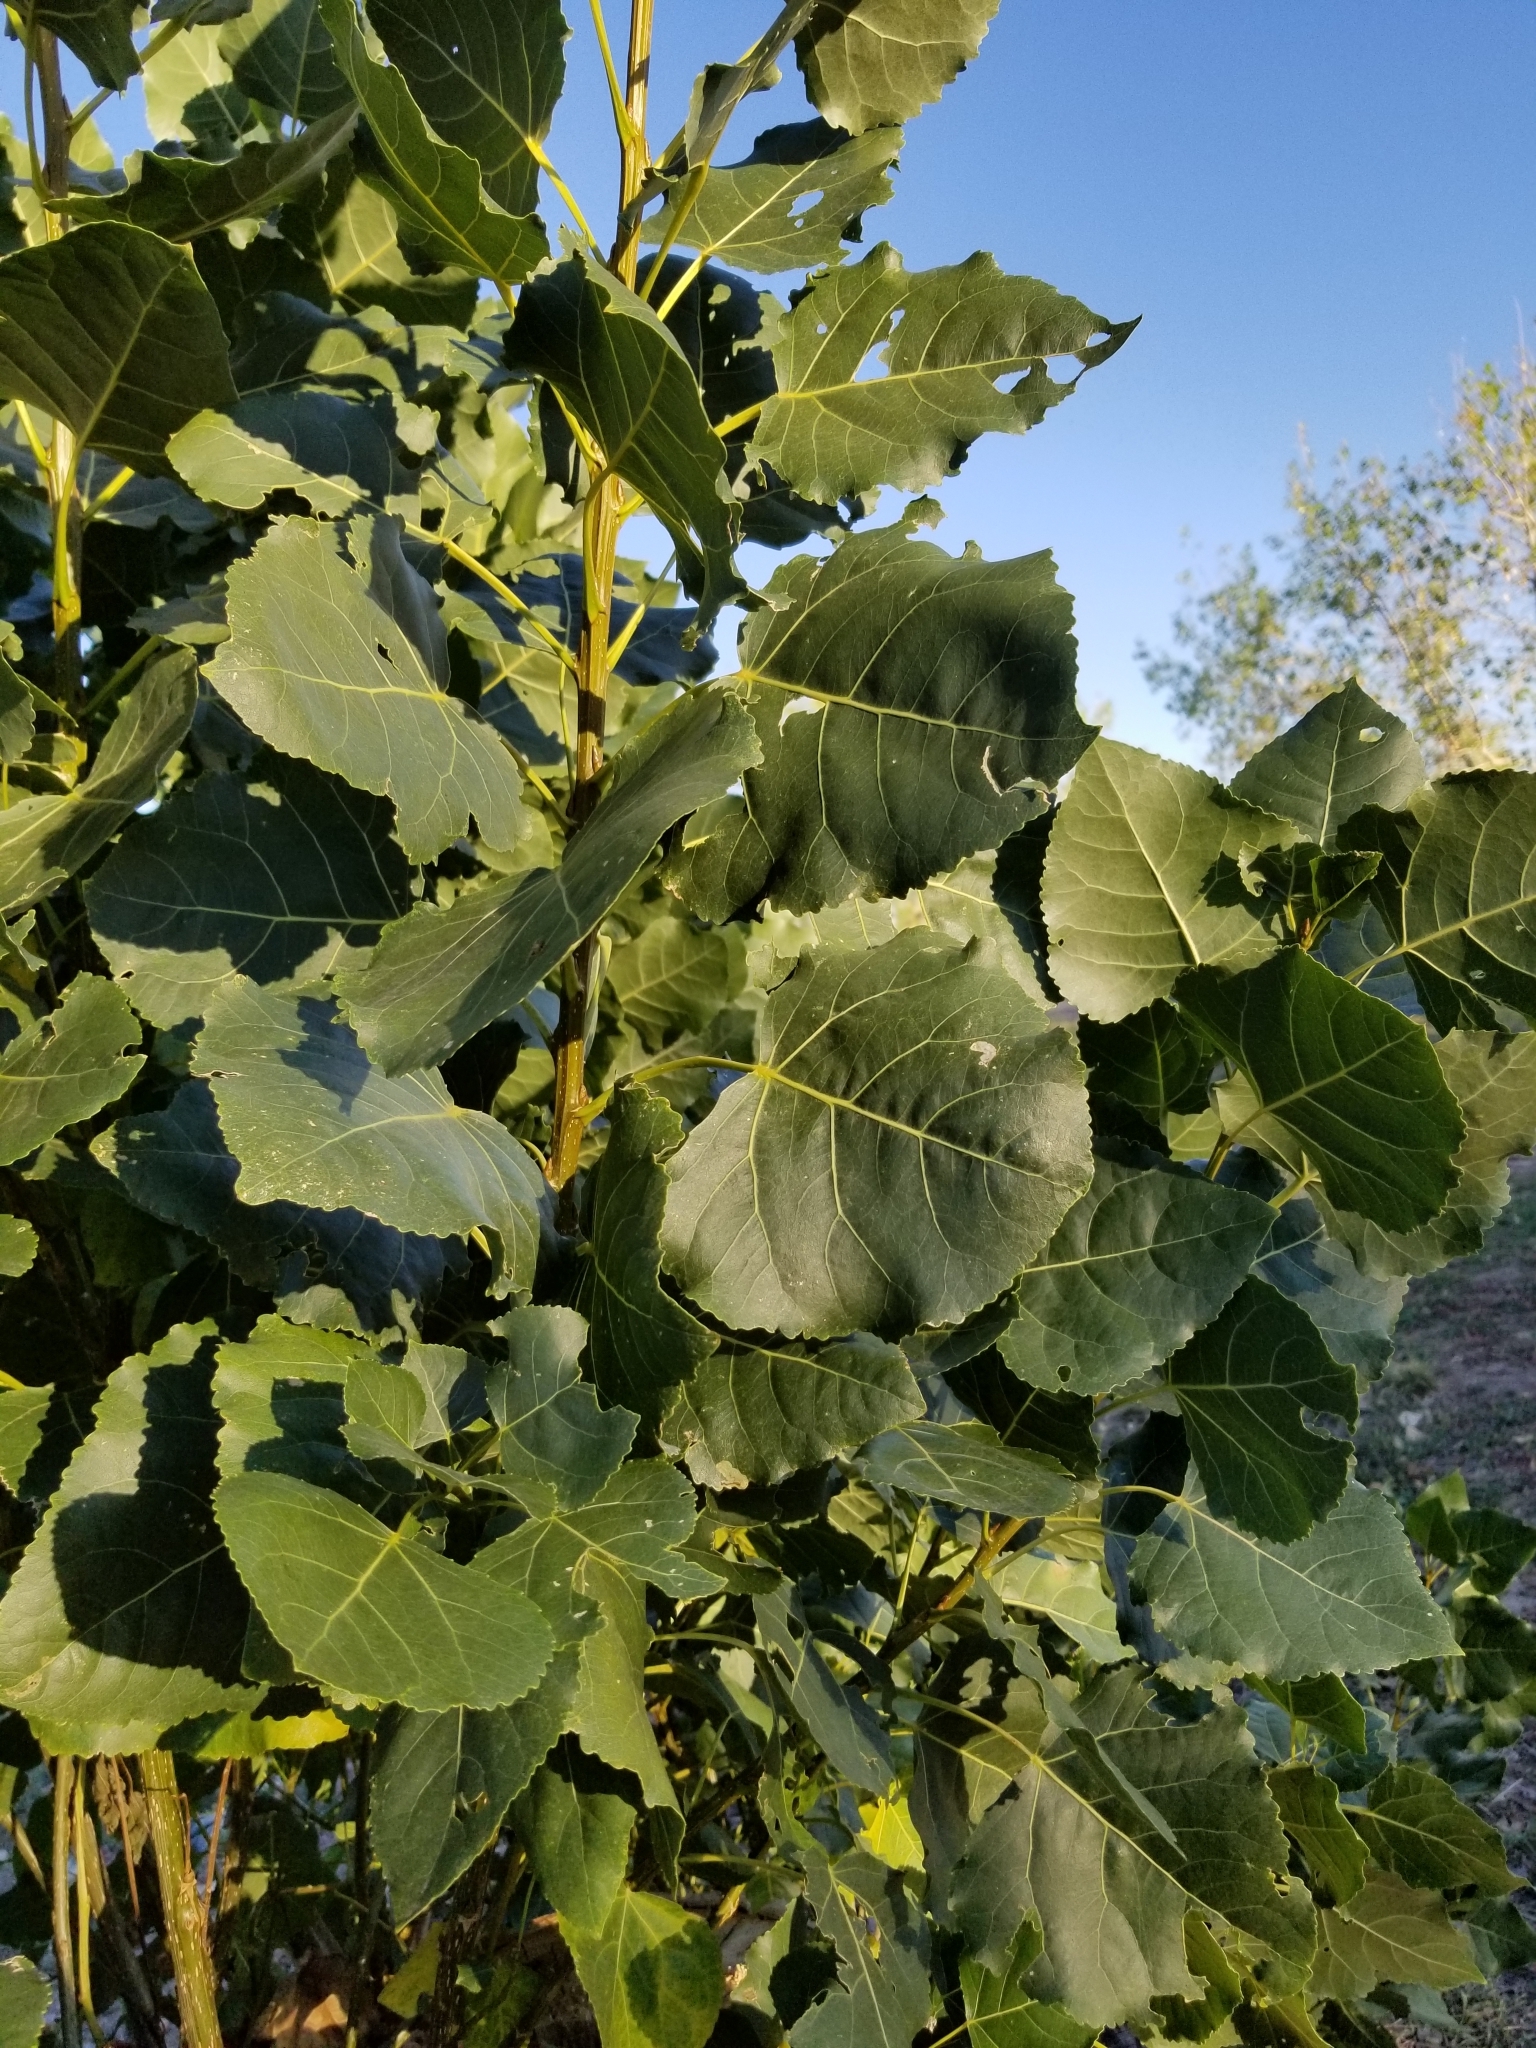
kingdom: Plantae
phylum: Tracheophyta
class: Magnoliopsida
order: Malpighiales
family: Salicaceae
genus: Populus
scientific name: Populus deltoides
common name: Eastern cottonwood
